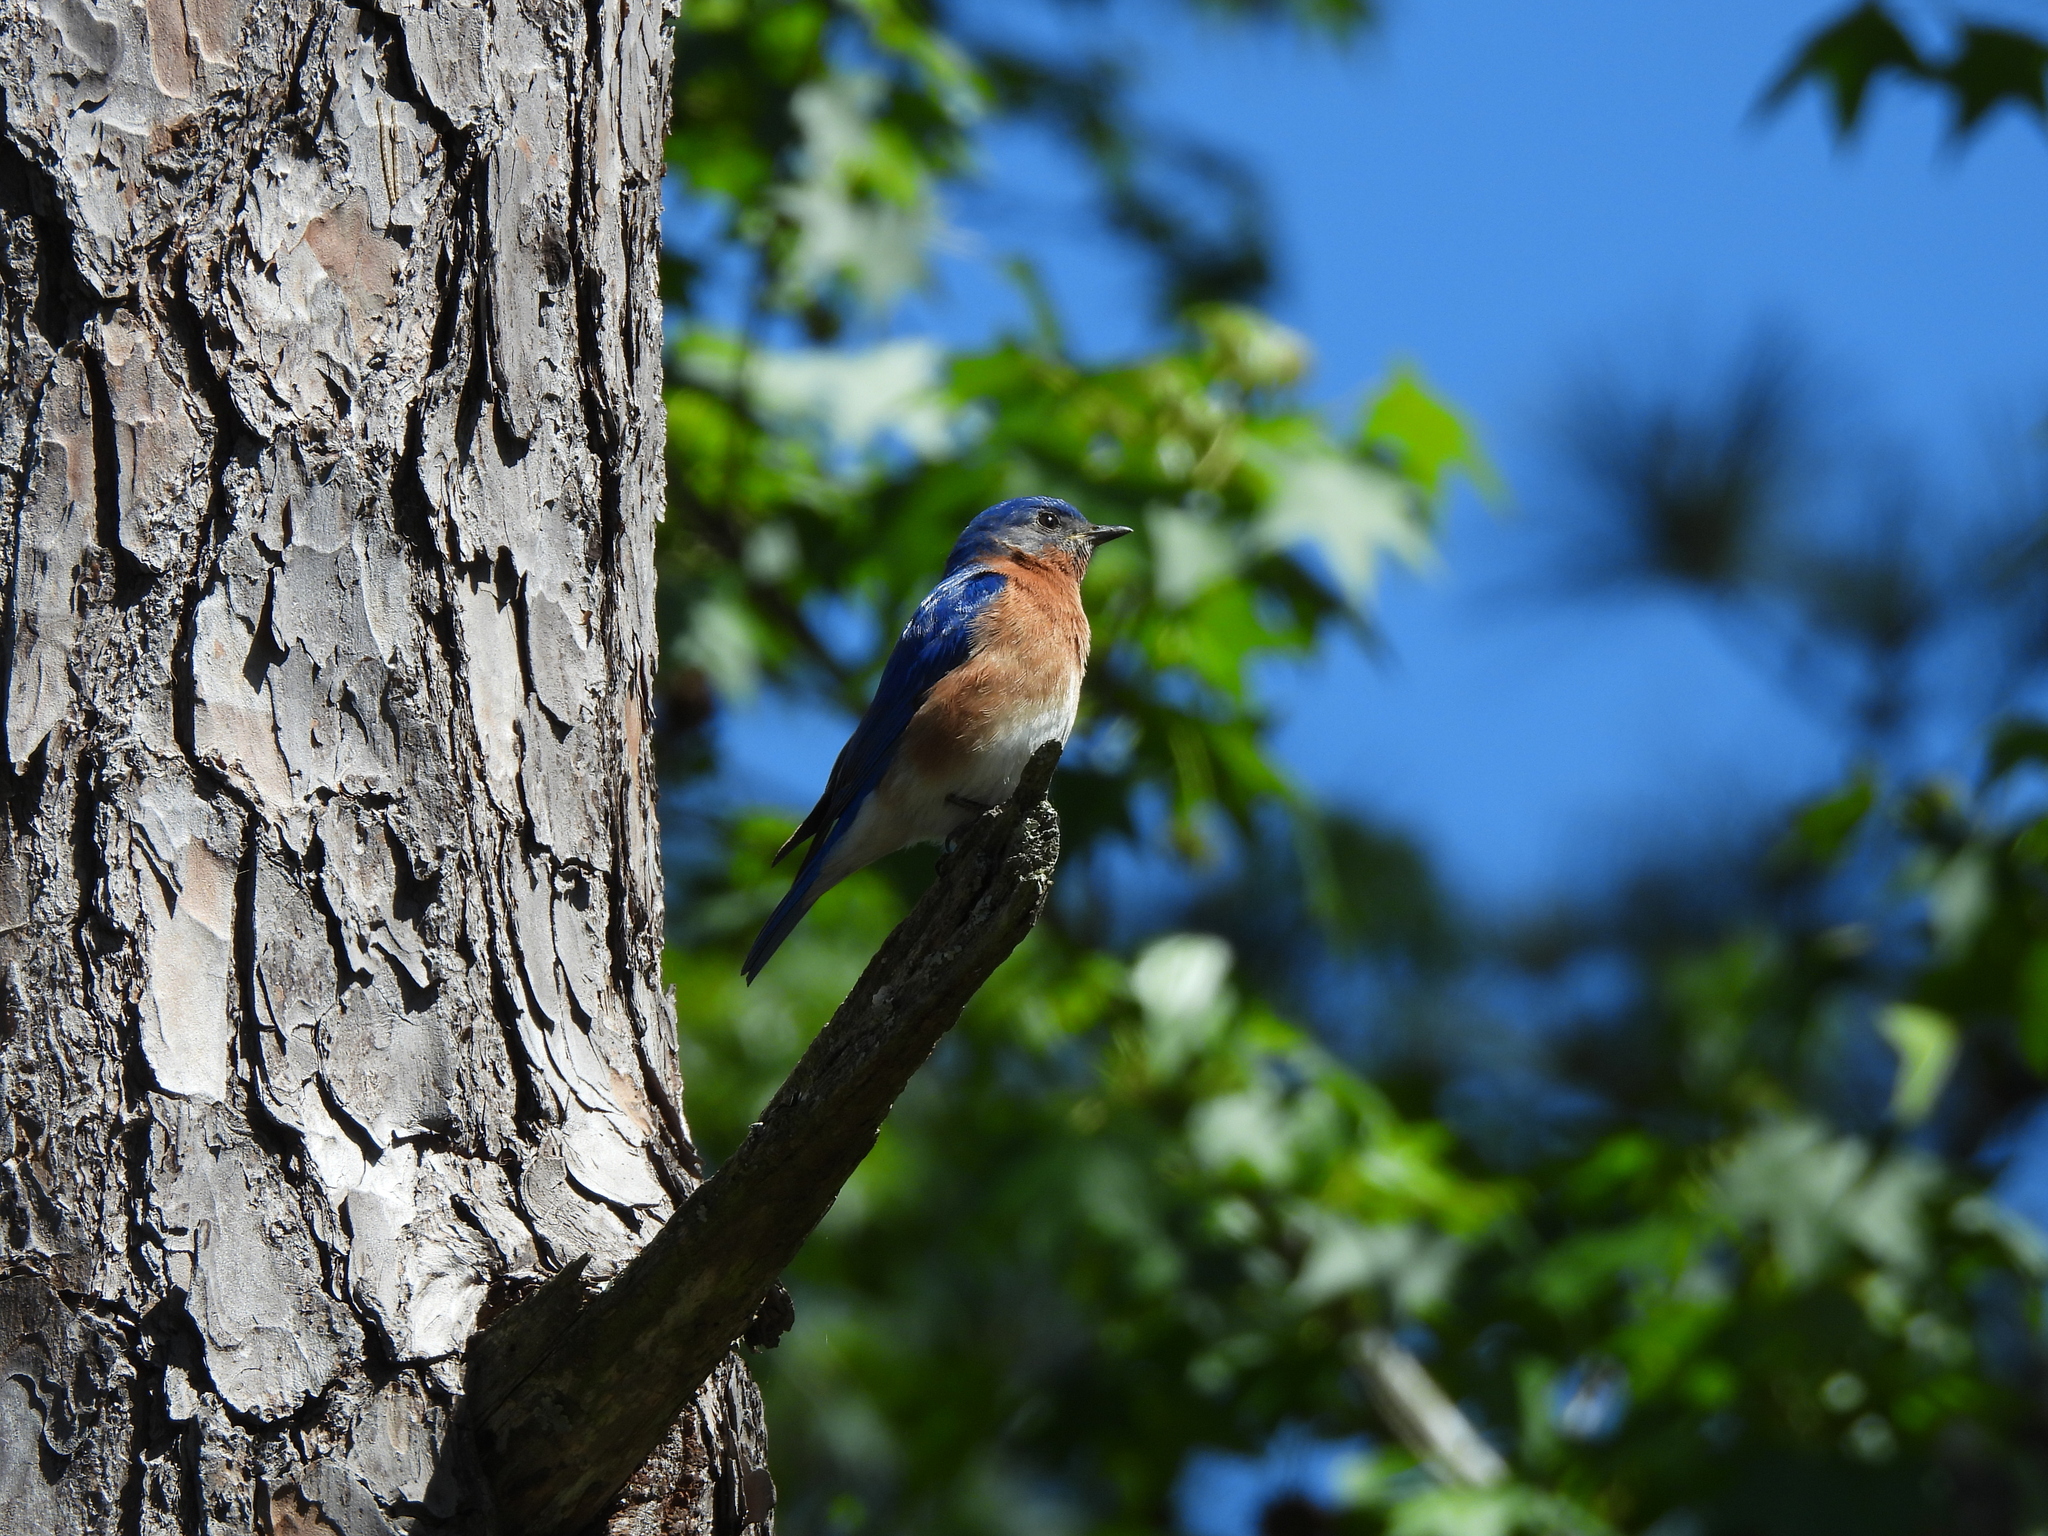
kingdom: Animalia
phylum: Chordata
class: Aves
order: Passeriformes
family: Turdidae
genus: Sialia
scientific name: Sialia sialis
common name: Eastern bluebird
